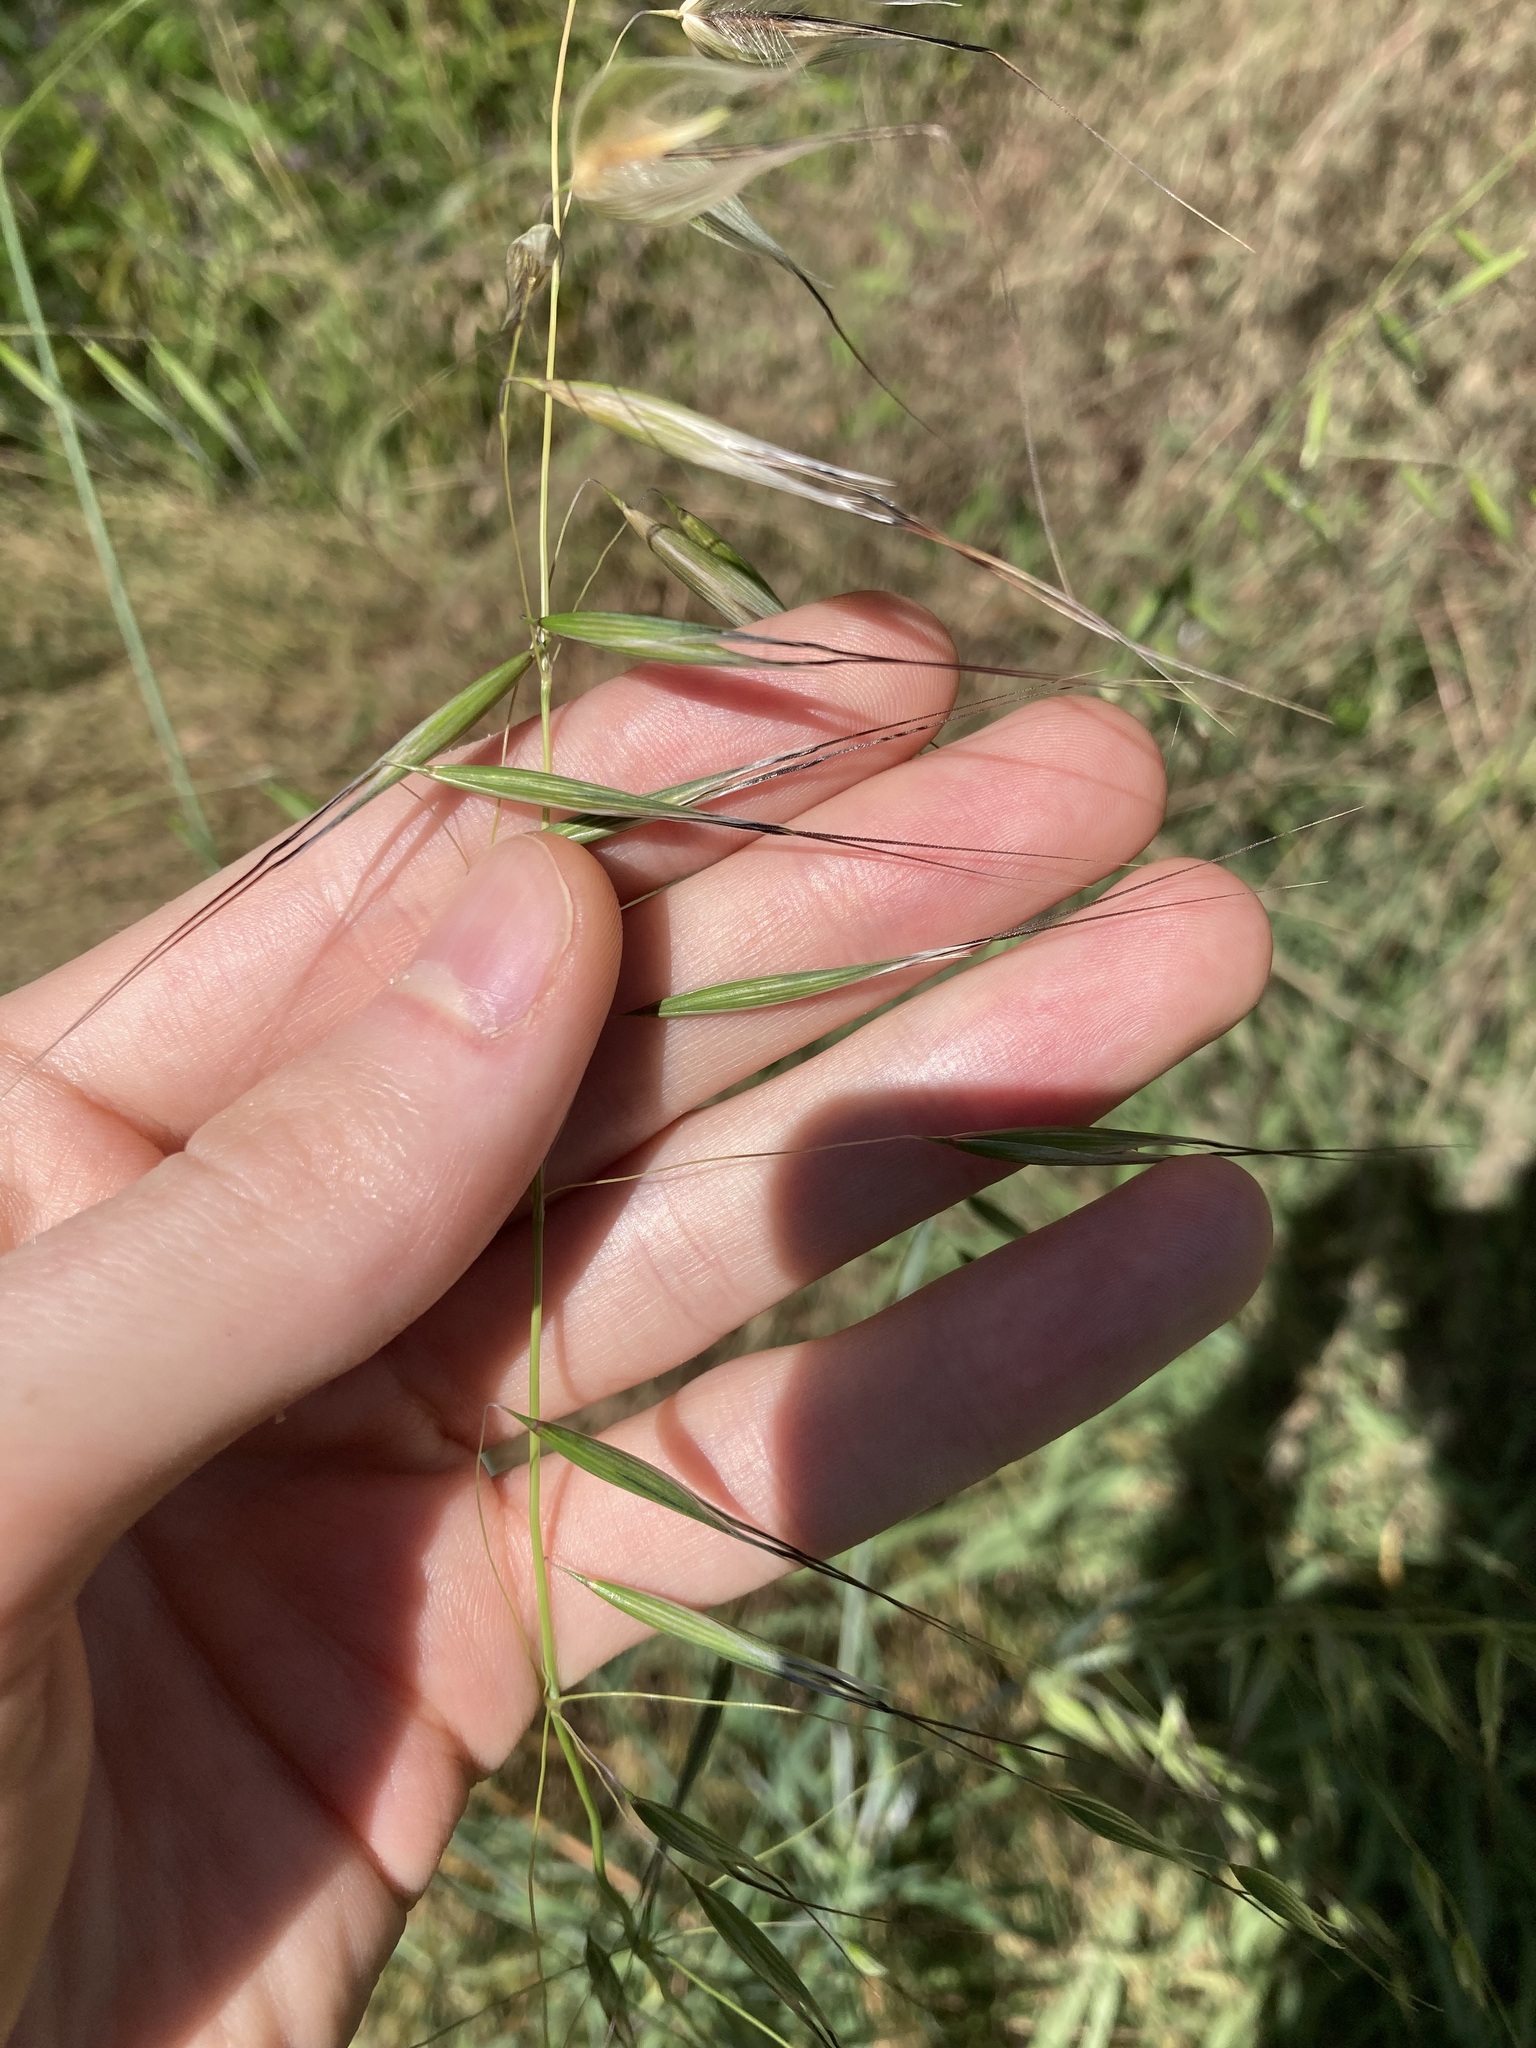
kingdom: Plantae
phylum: Tracheophyta
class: Liliopsida
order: Poales
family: Poaceae
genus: Avena
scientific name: Avena barbata
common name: Slender oat
